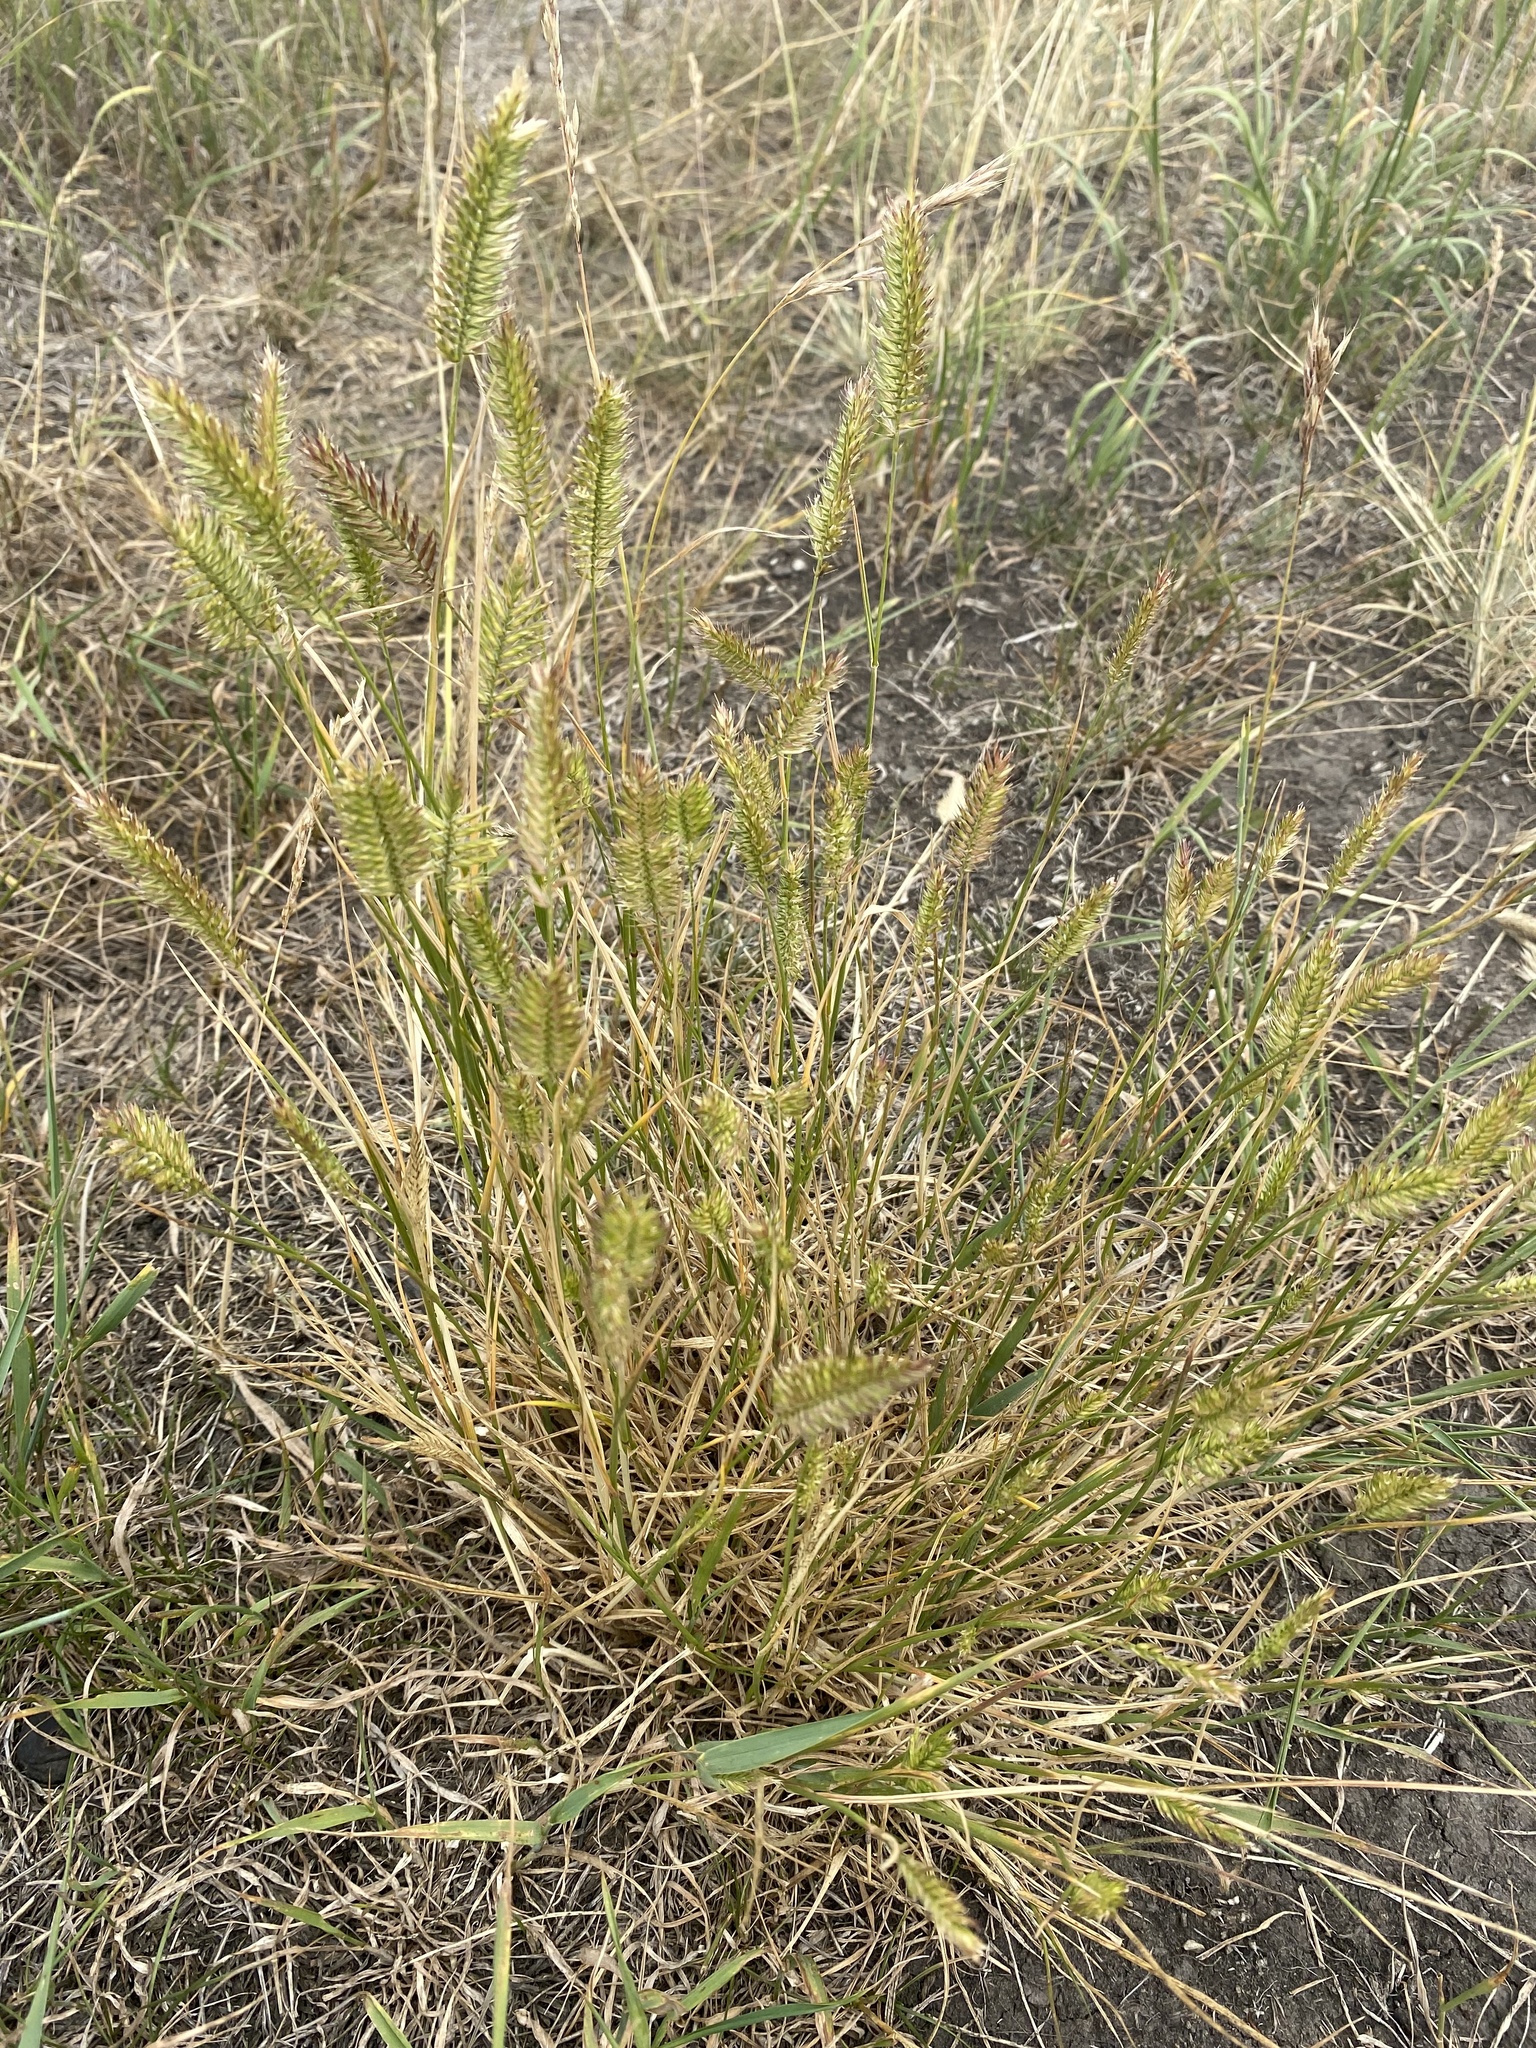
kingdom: Plantae
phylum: Tracheophyta
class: Liliopsida
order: Poales
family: Poaceae
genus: Agropyron
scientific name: Agropyron cristatum
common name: Crested wheatgrass
